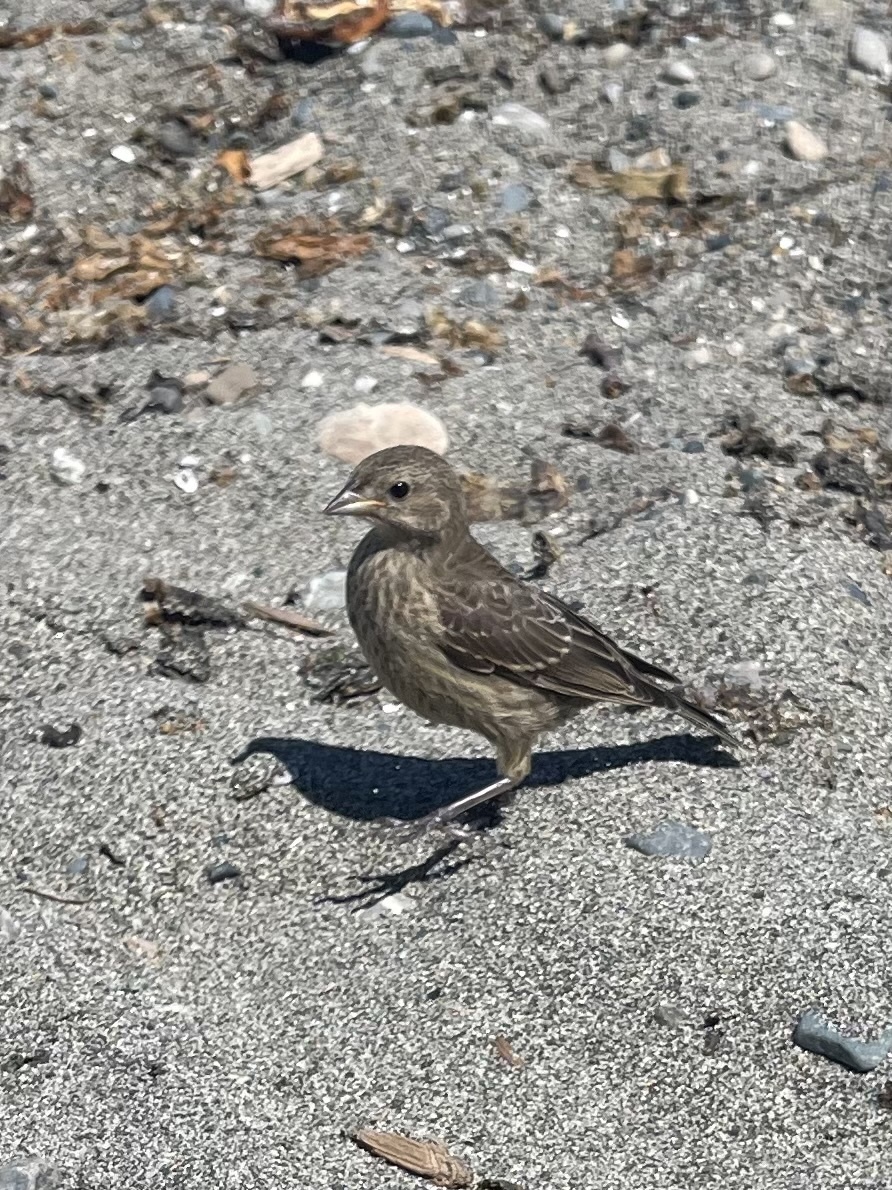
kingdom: Animalia
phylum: Chordata
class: Aves
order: Passeriformes
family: Fringillidae
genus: Haemorhous
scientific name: Haemorhous mexicanus
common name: House finch
